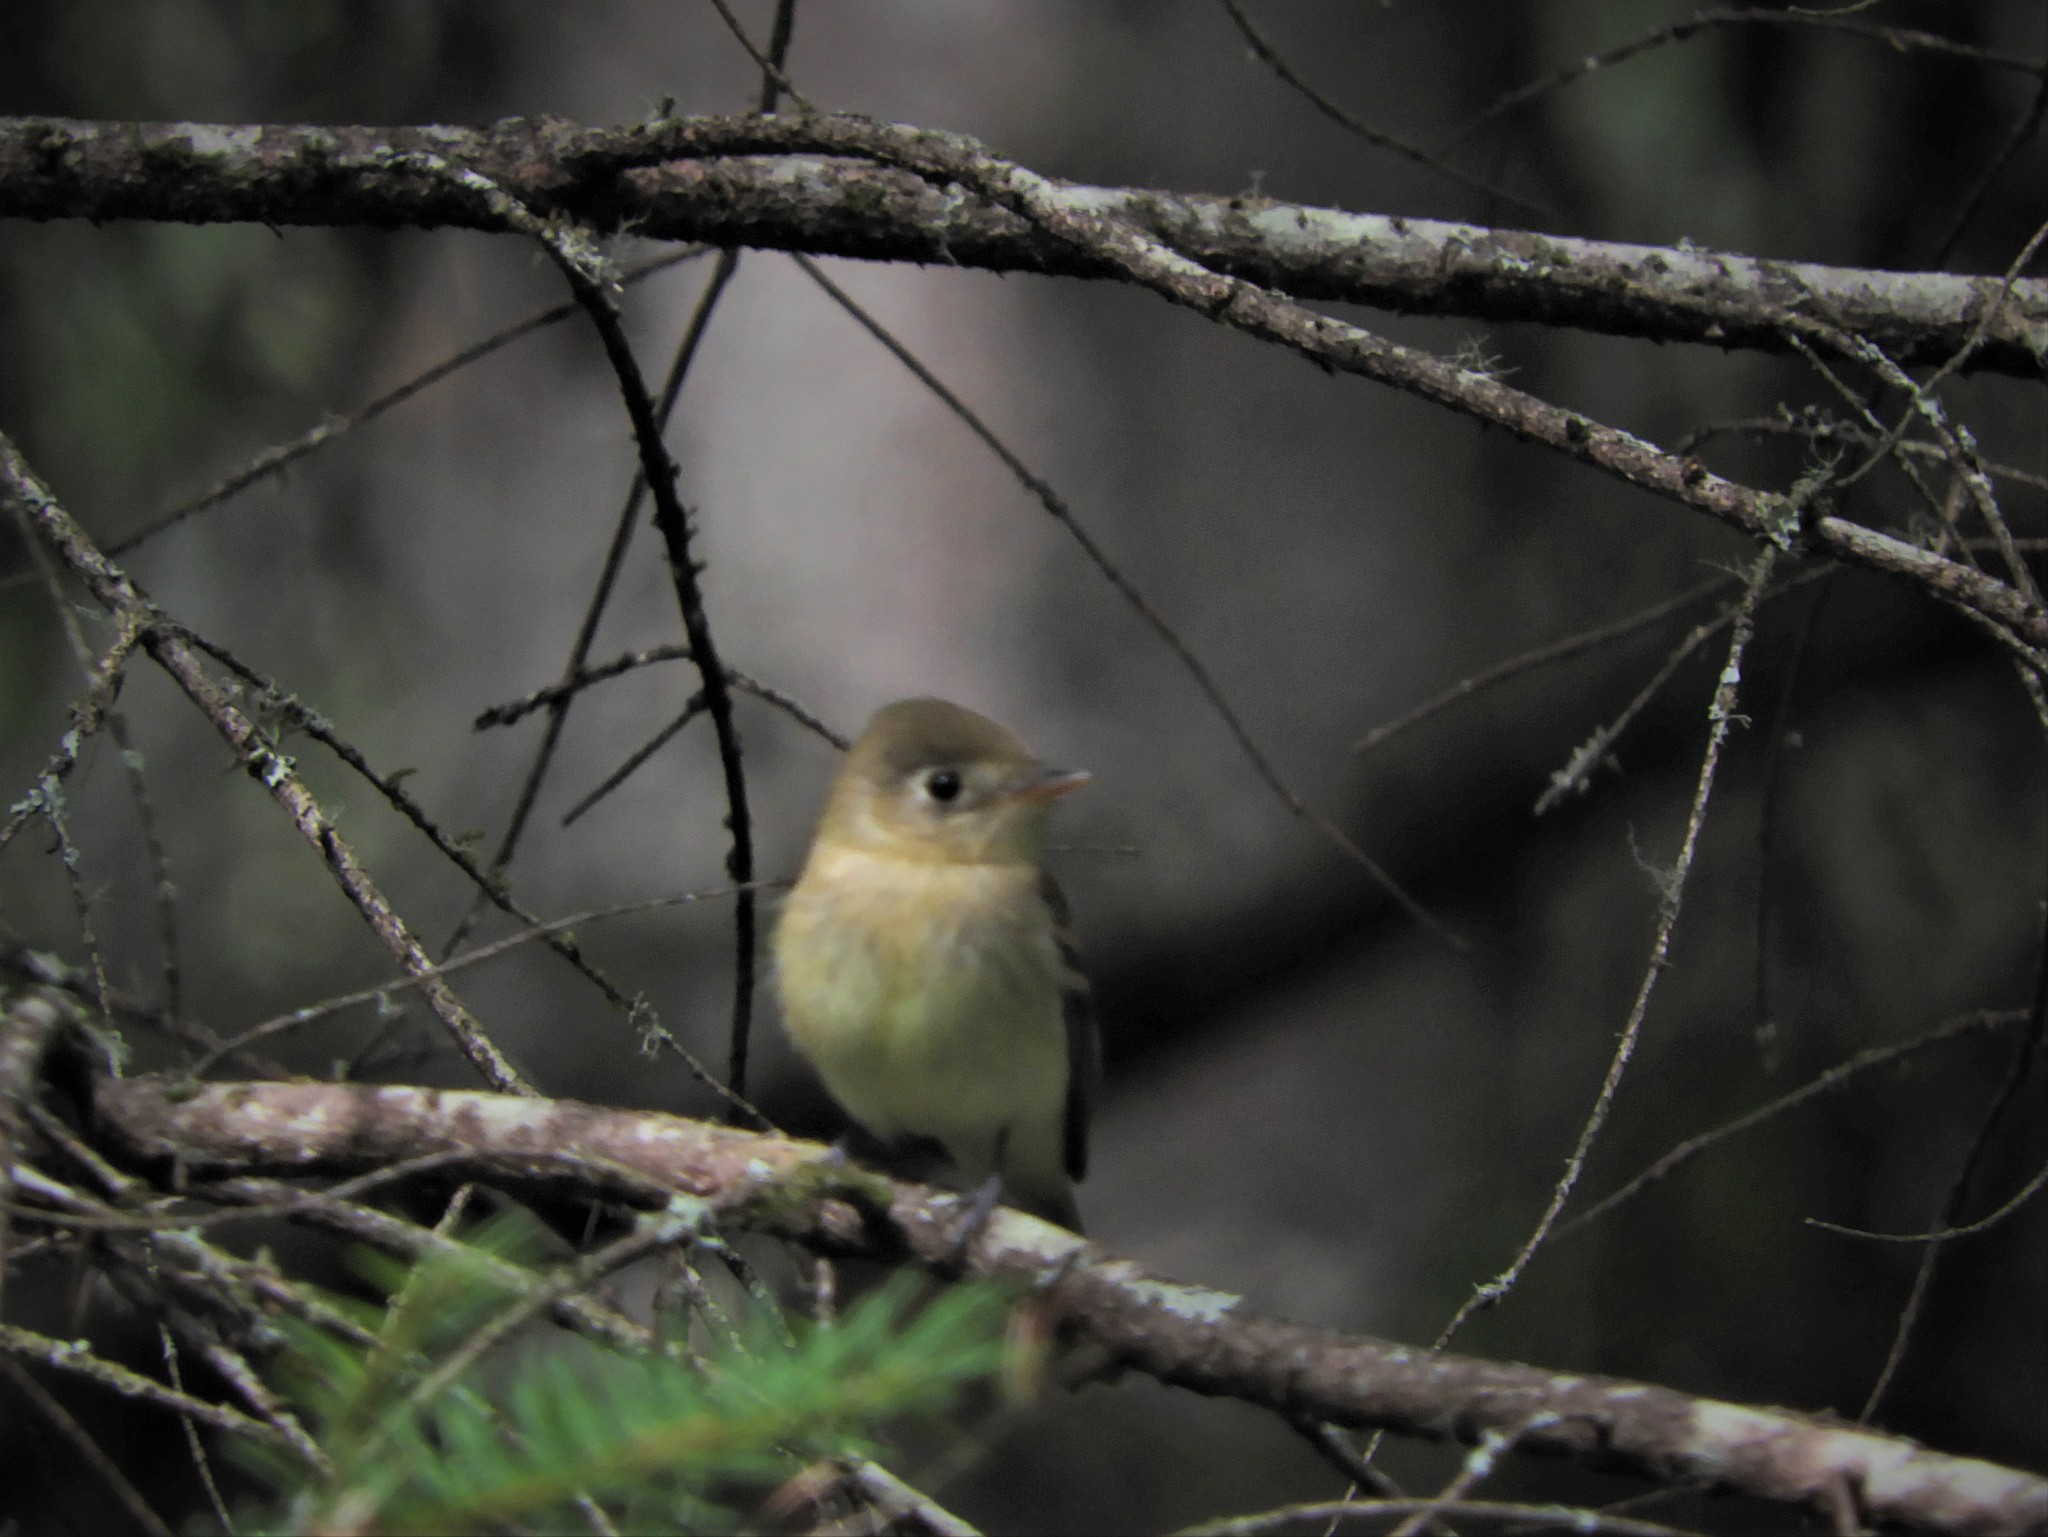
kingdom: Animalia
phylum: Chordata
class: Aves
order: Passeriformes
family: Tyrannidae
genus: Empidonax
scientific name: Empidonax difficilis
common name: Pacific-slope flycatcher
